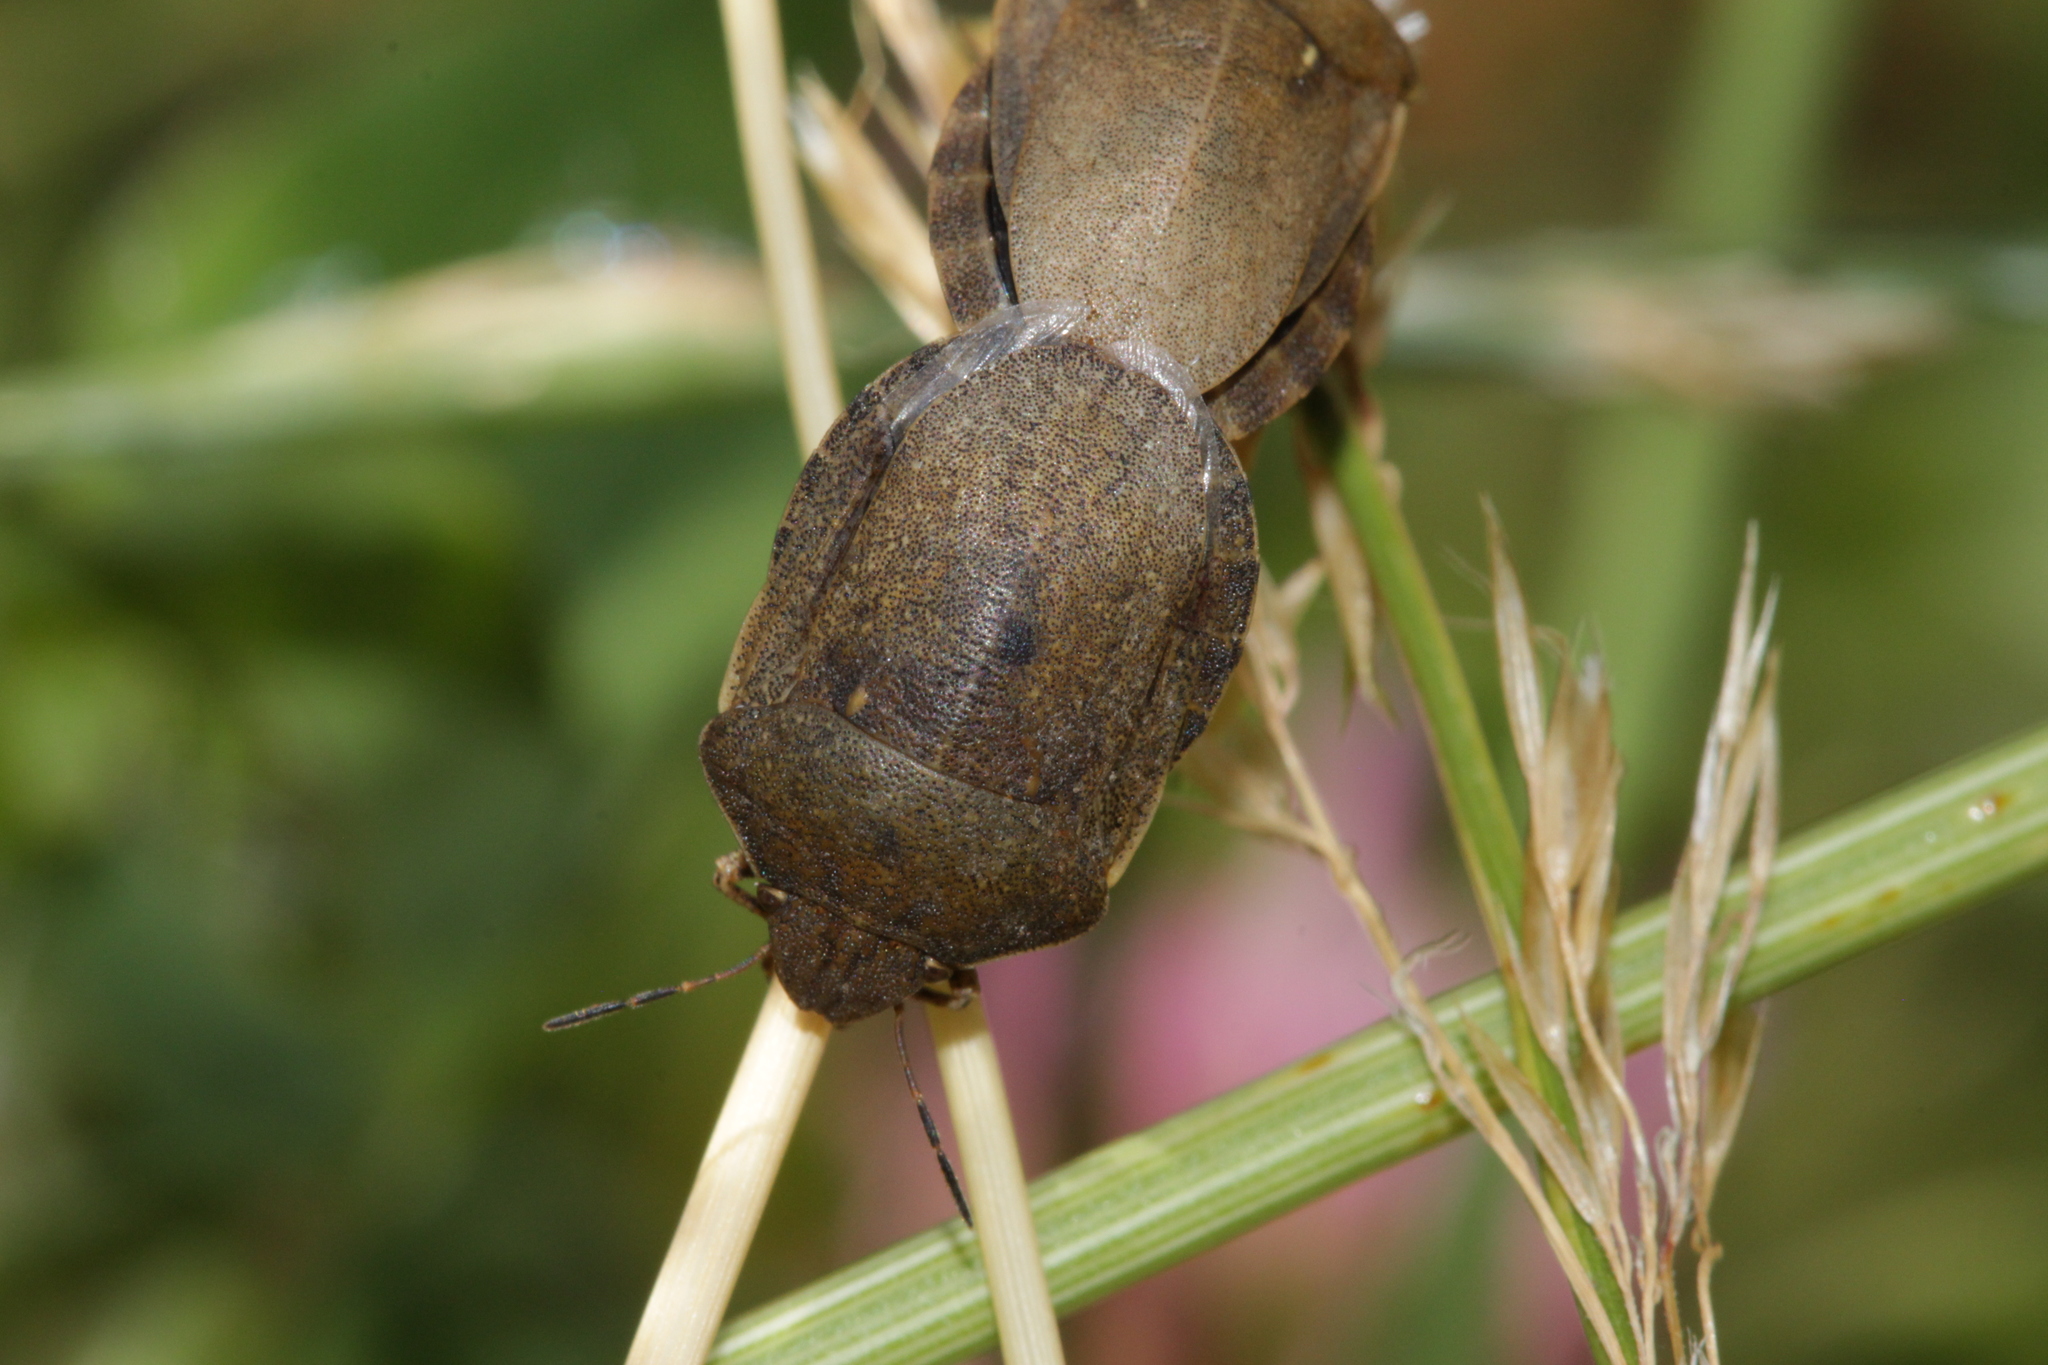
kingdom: Animalia
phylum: Arthropoda
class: Insecta
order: Hemiptera
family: Scutelleridae
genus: Eurygaster
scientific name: Eurygaster testudinaria
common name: Tortoise bug
